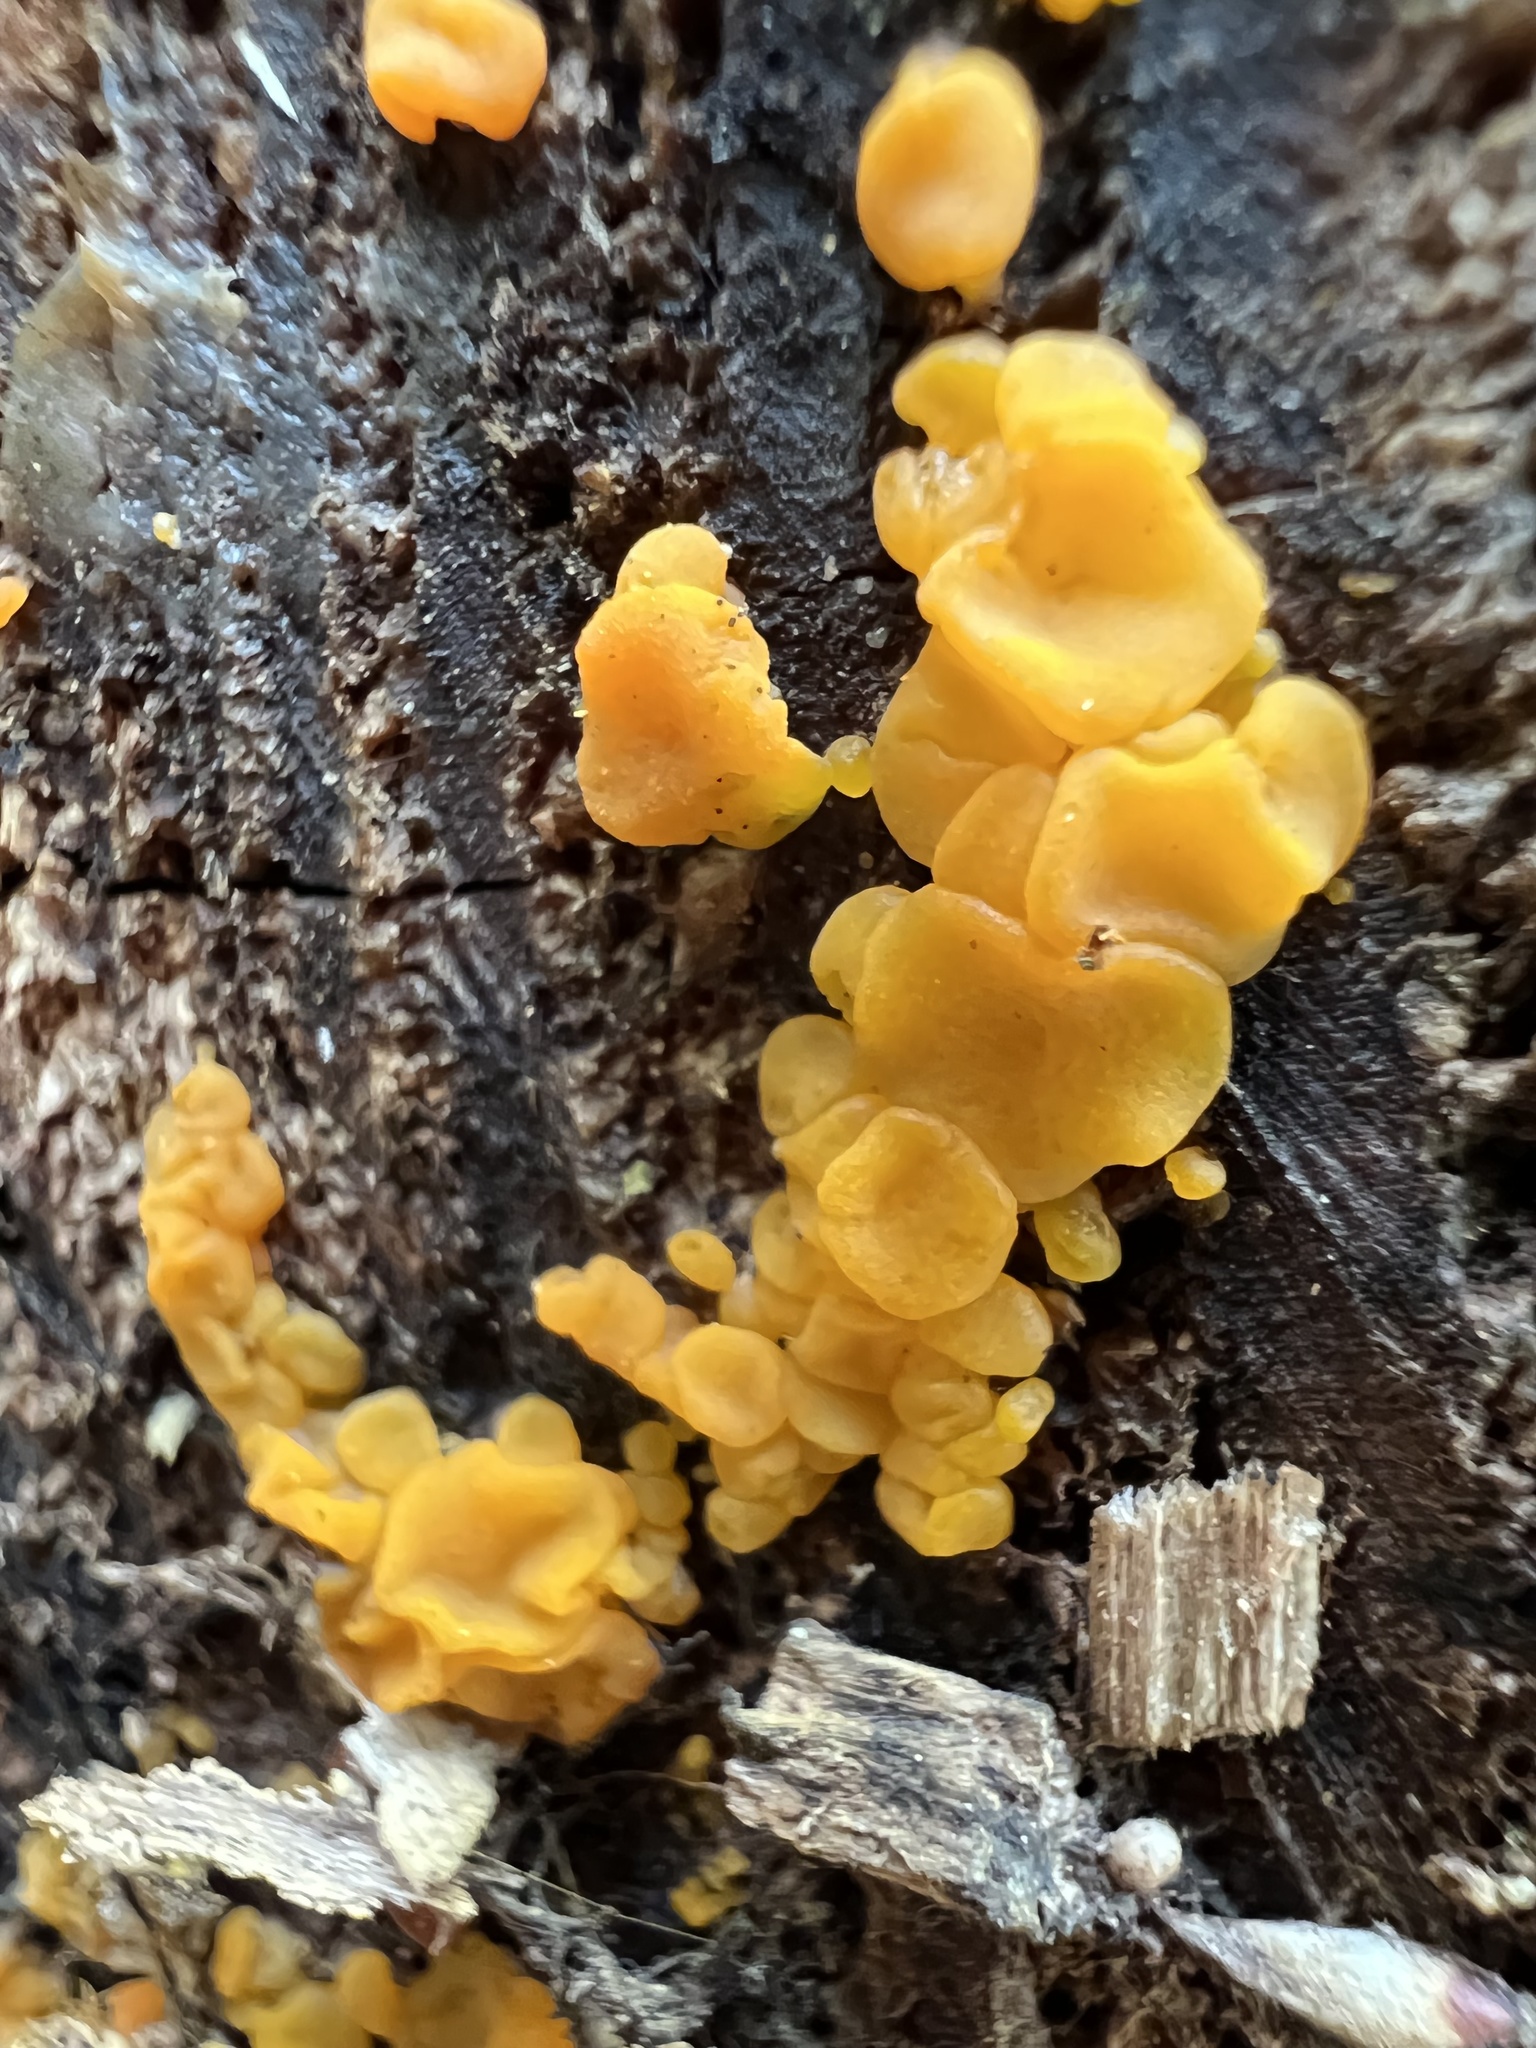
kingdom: Fungi
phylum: Basidiomycota
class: Dacrymycetes
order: Dacrymycetales
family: Dacrymycetaceae
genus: Dacrymyces
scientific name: Dacrymyces variisporus
